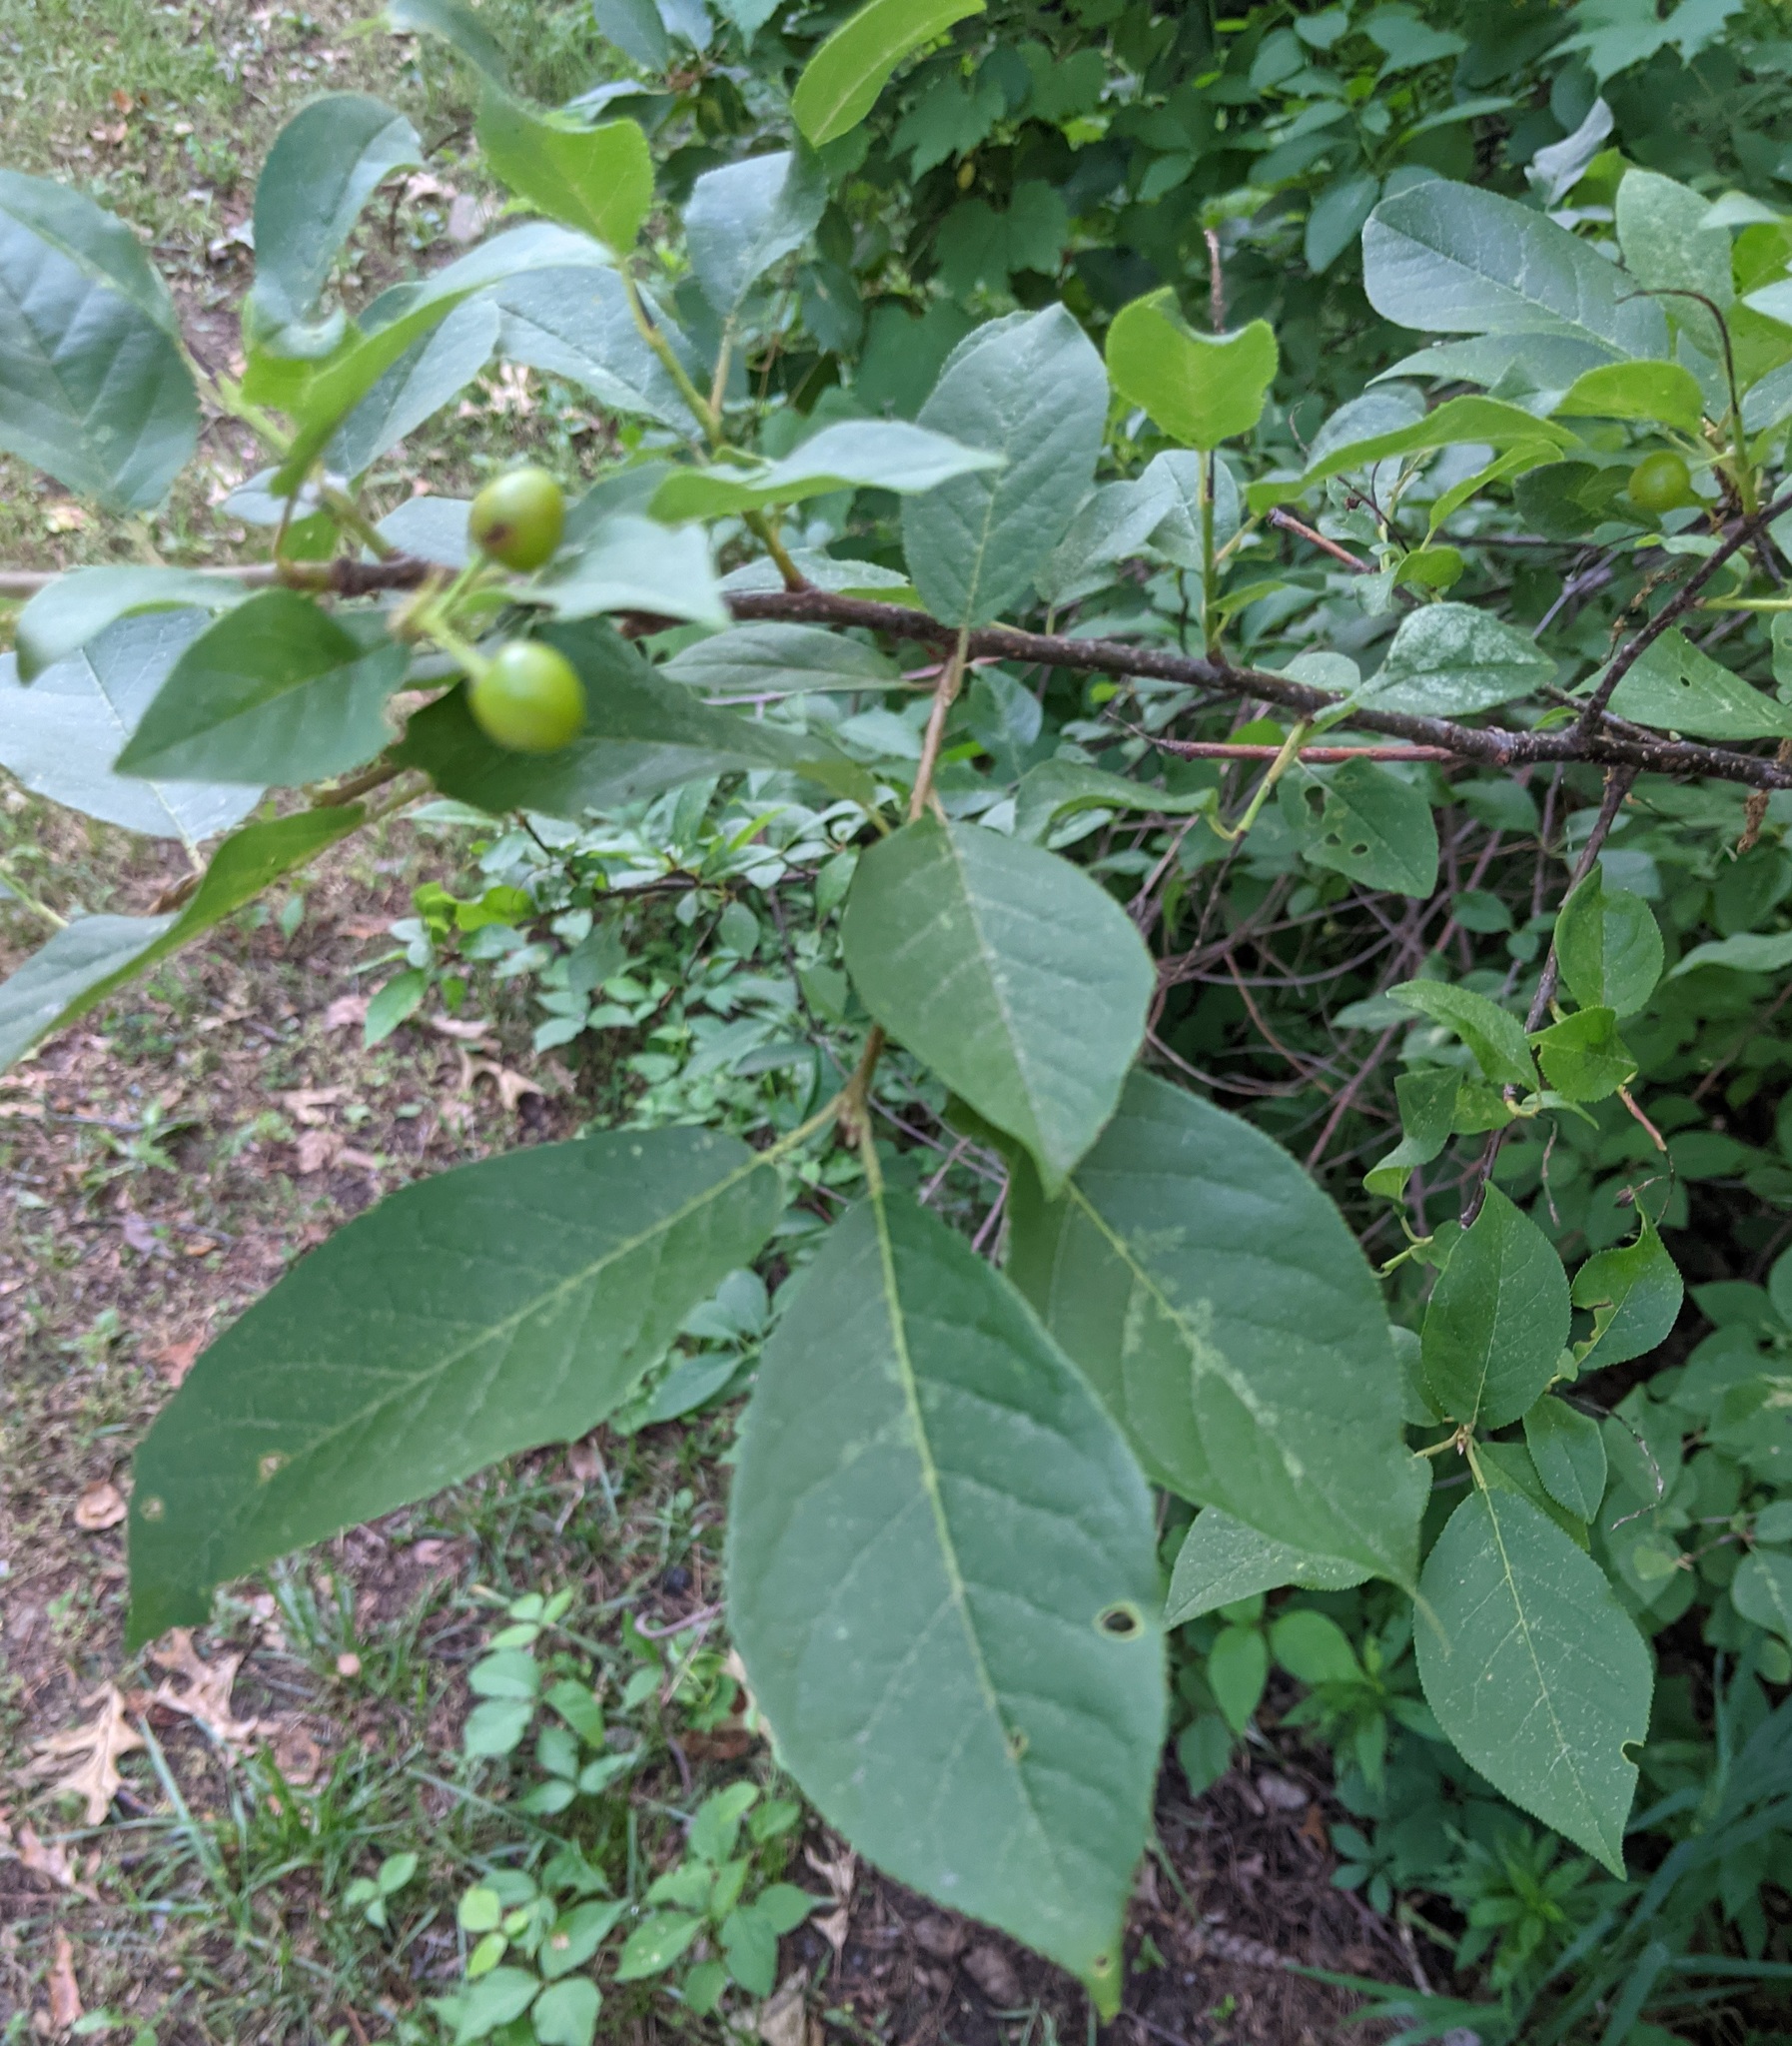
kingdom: Plantae
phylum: Tracheophyta
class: Magnoliopsida
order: Rosales
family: Rosaceae
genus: Prunus
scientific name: Prunus virginiana
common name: Chokecherry
